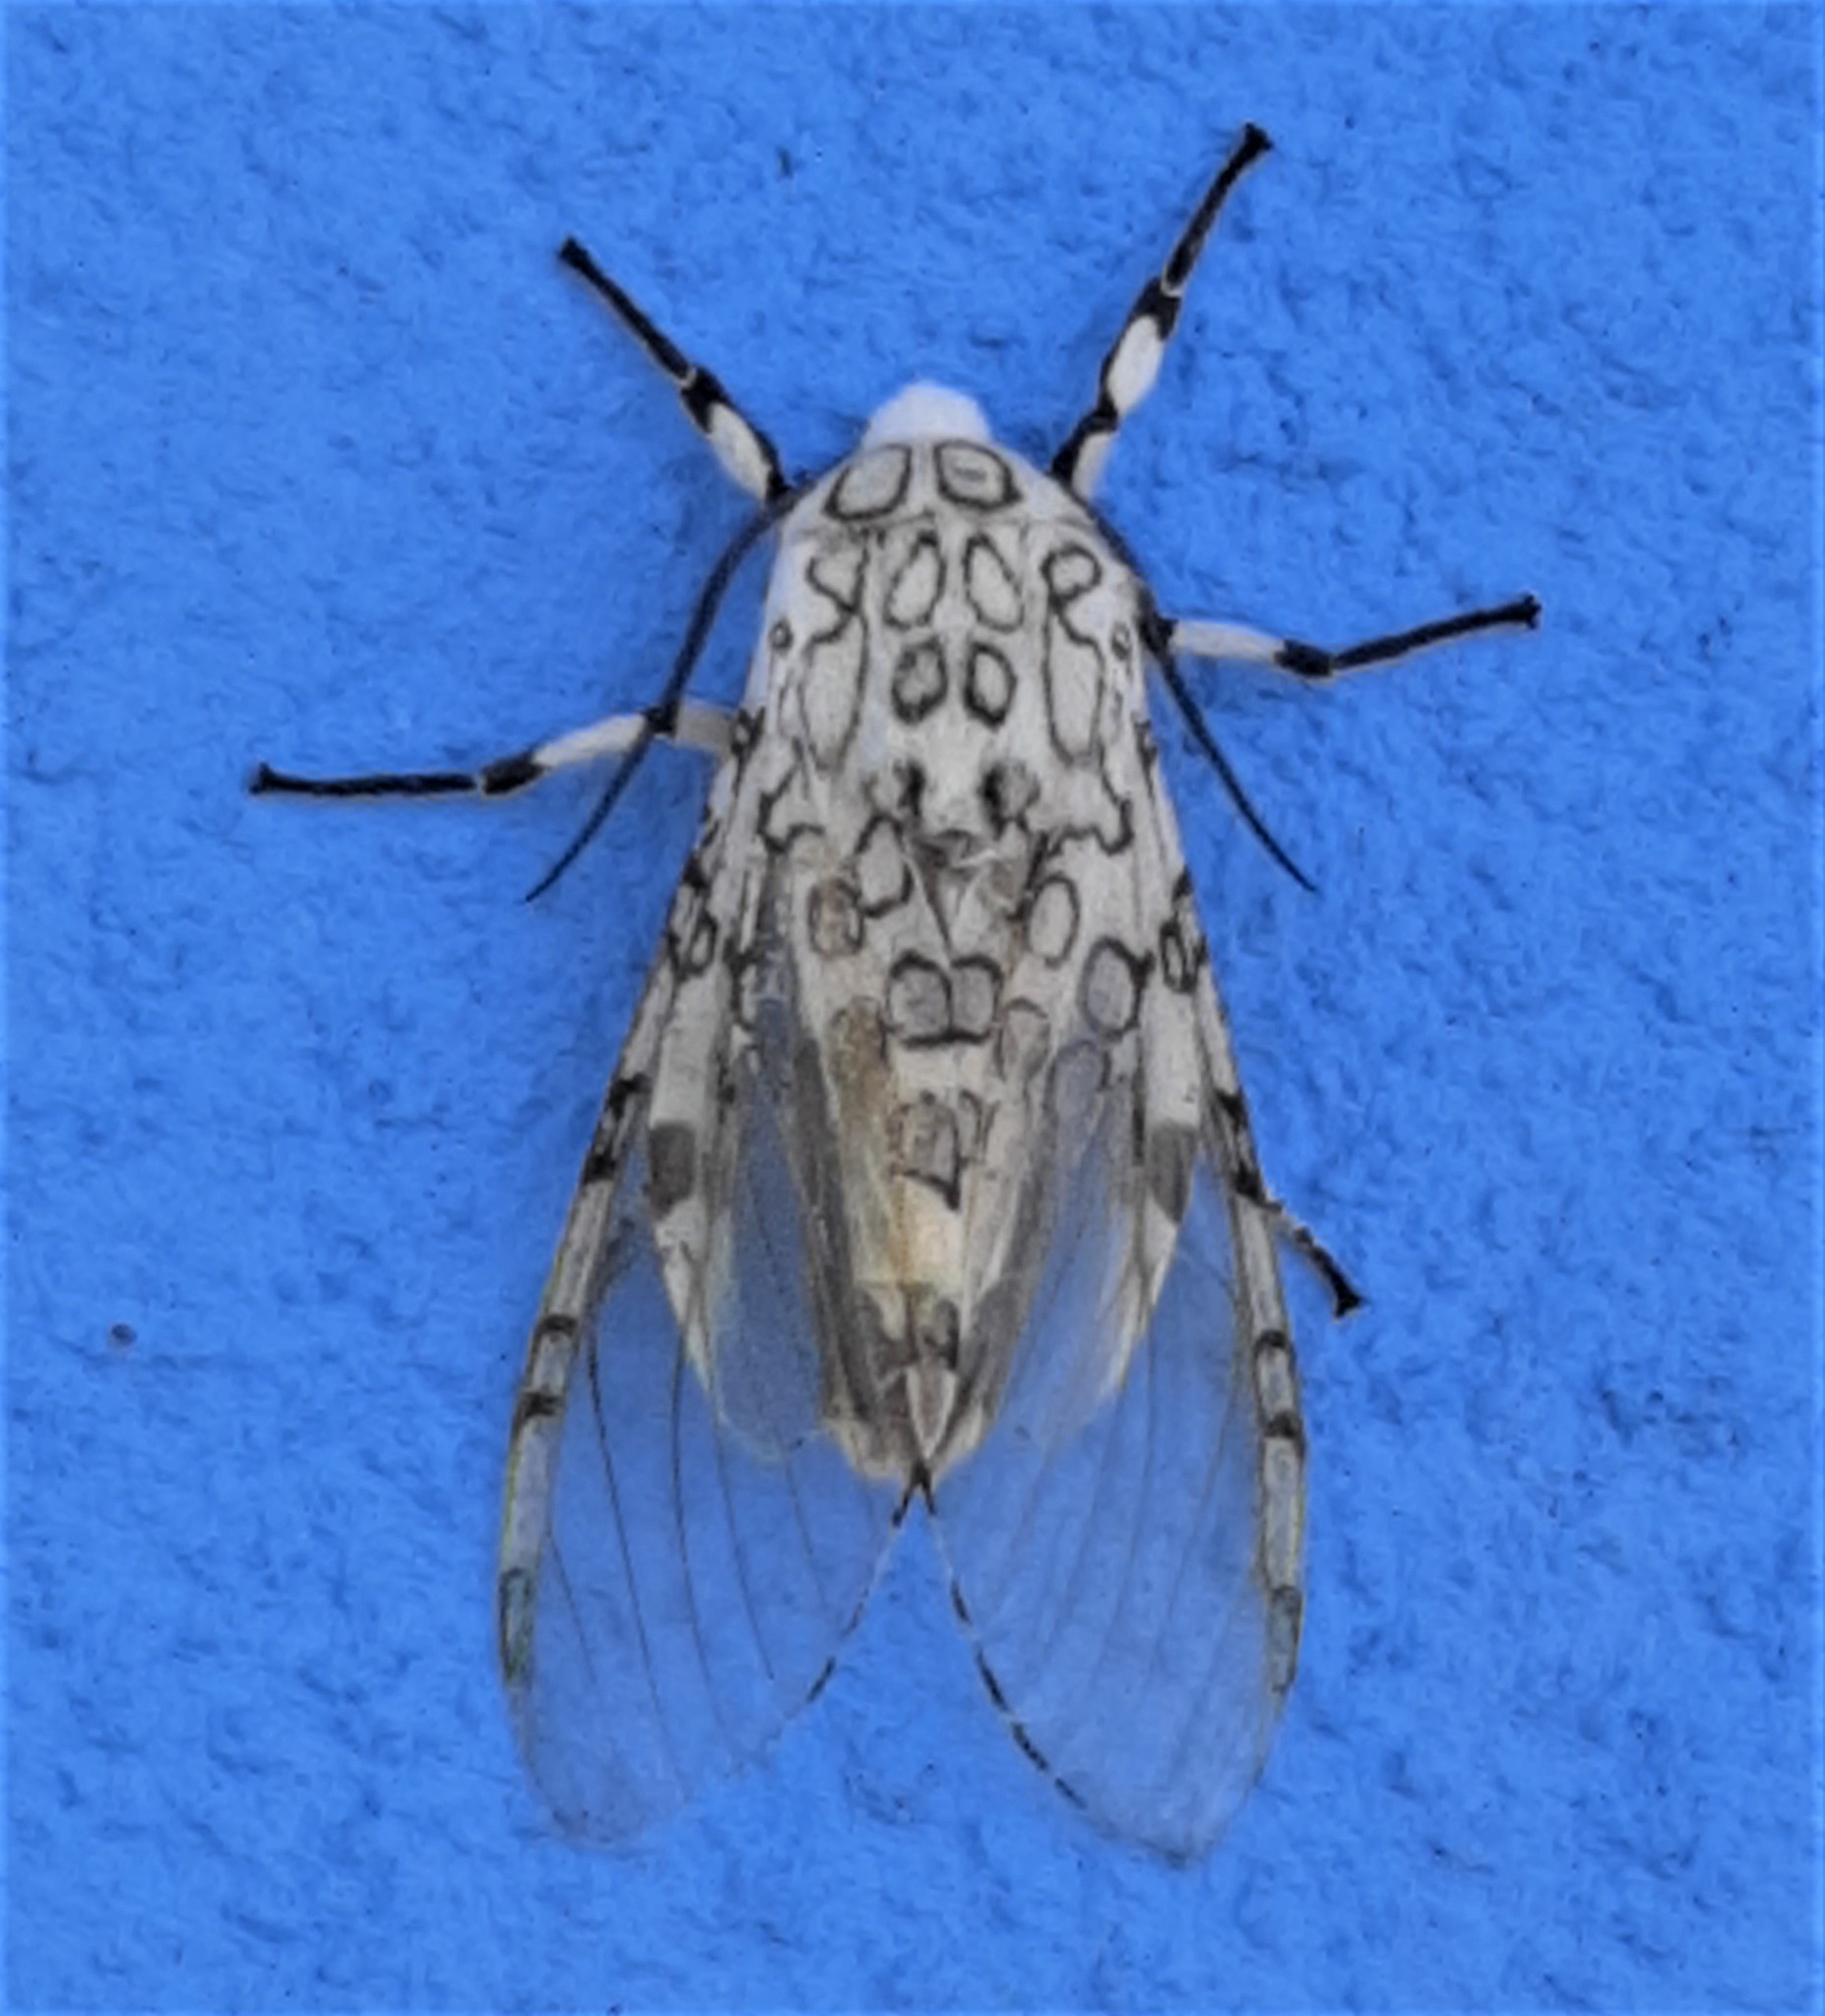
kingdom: Animalia
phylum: Arthropoda
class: Insecta
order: Lepidoptera
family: Erebidae
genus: Hypercompe
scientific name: Hypercompe icasia
